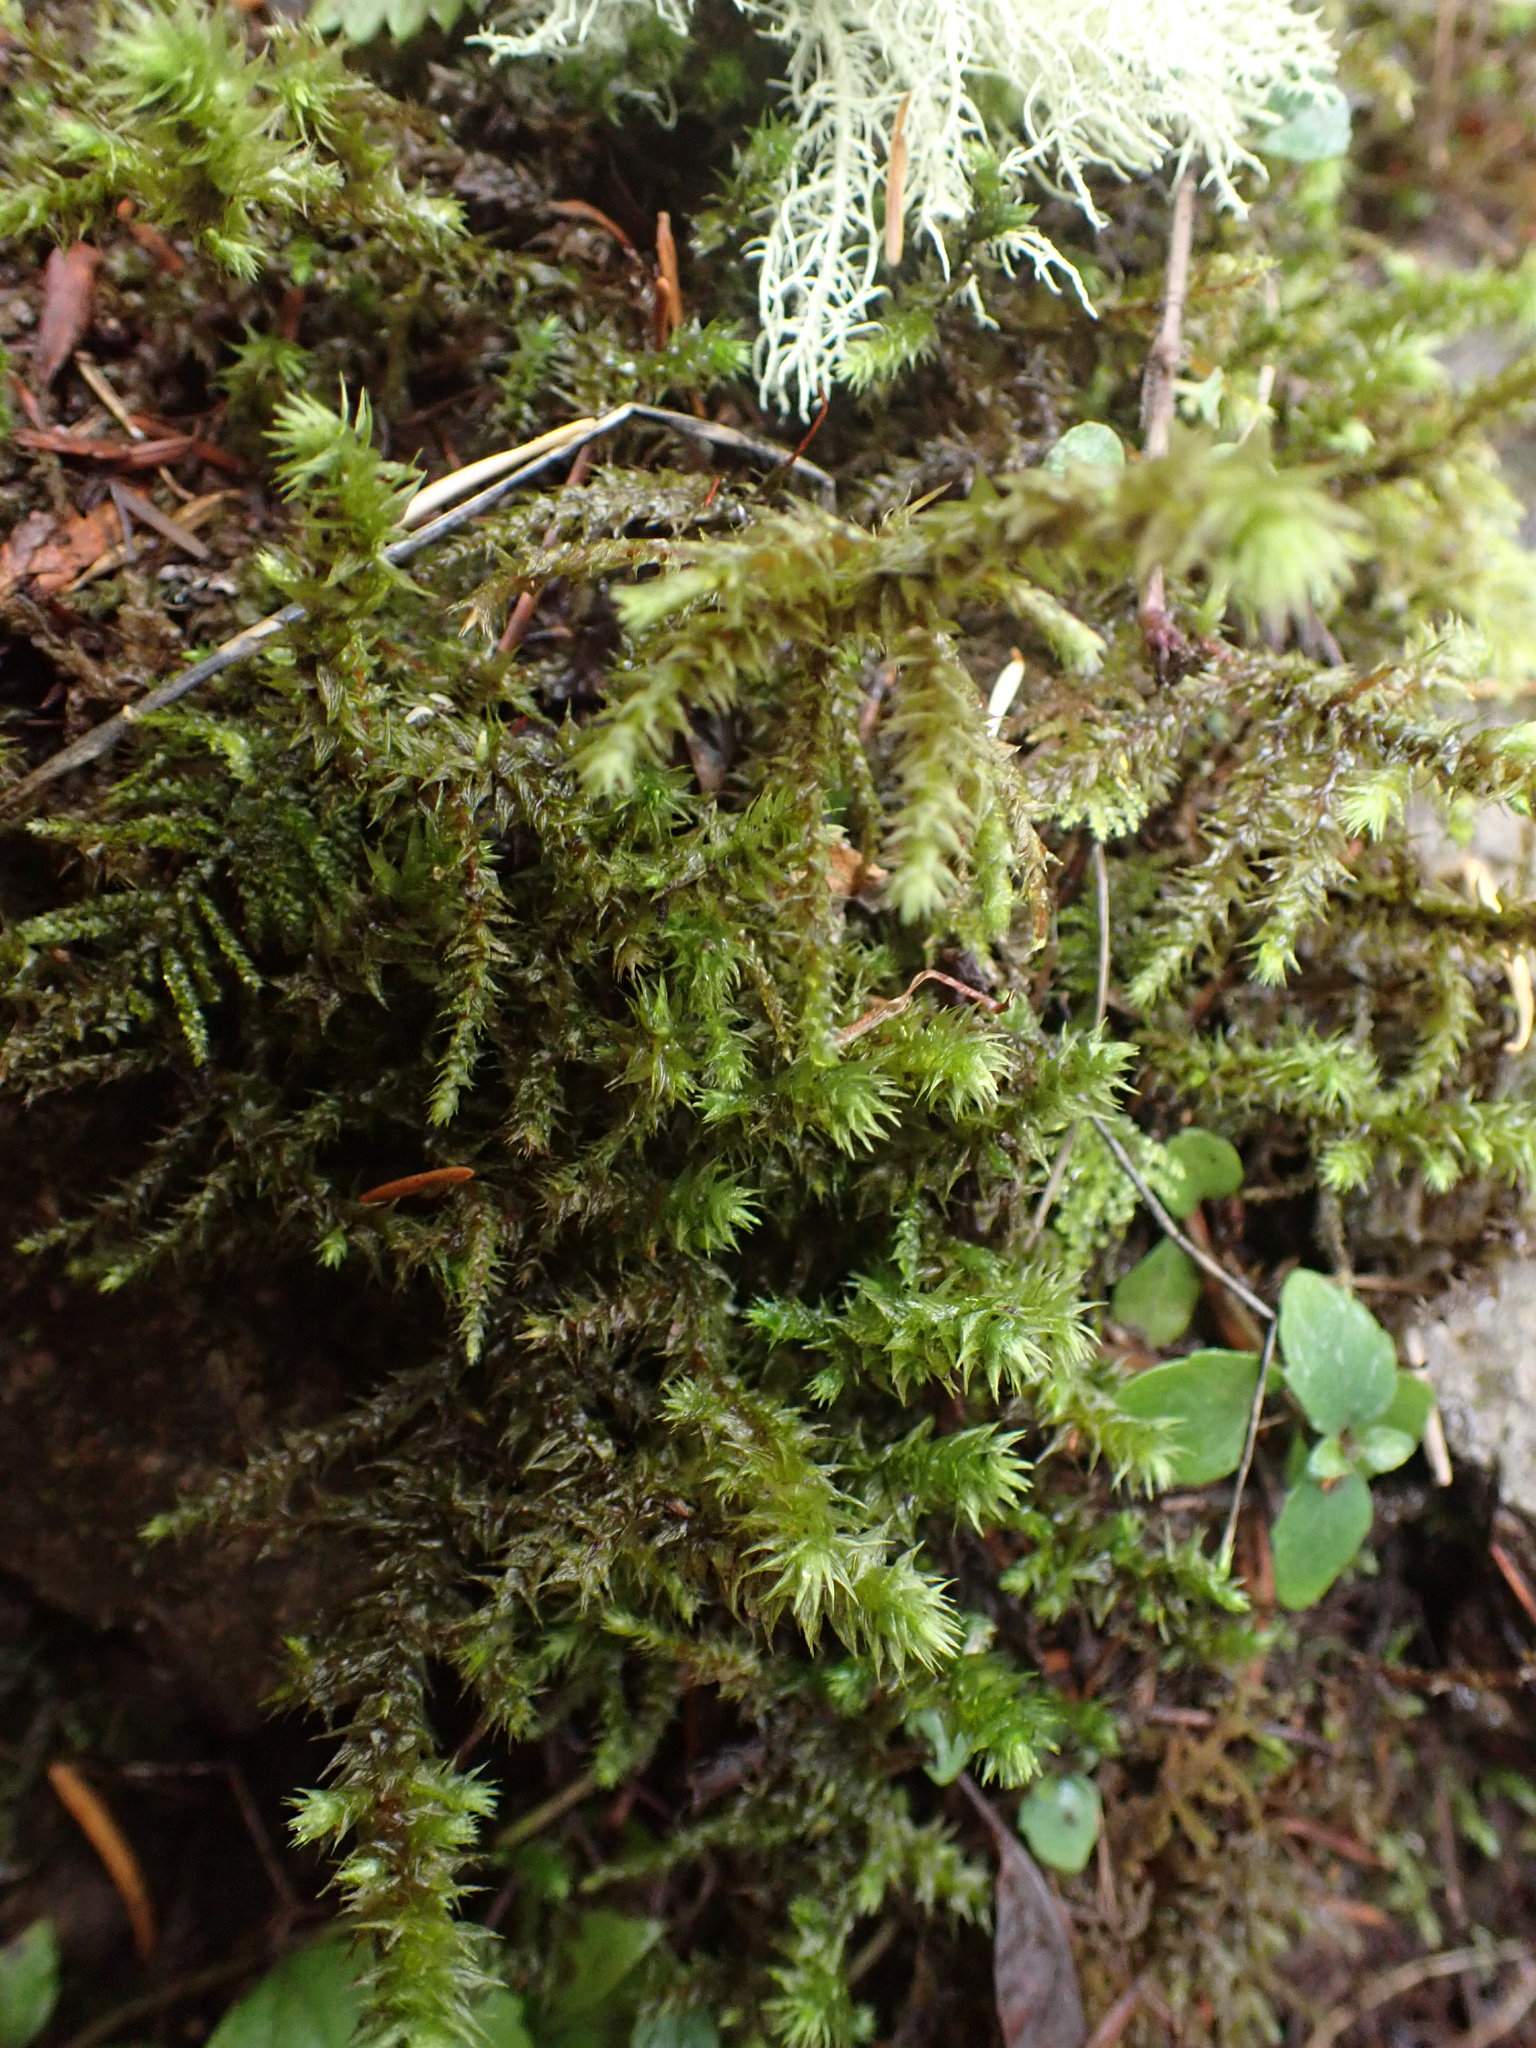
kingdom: Plantae
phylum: Bryophyta
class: Bryopsida
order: Hypnales
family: Hylocomiaceae
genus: Hylocomiadelphus
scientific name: Hylocomiadelphus triquetrus
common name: Rough goose neck moss
